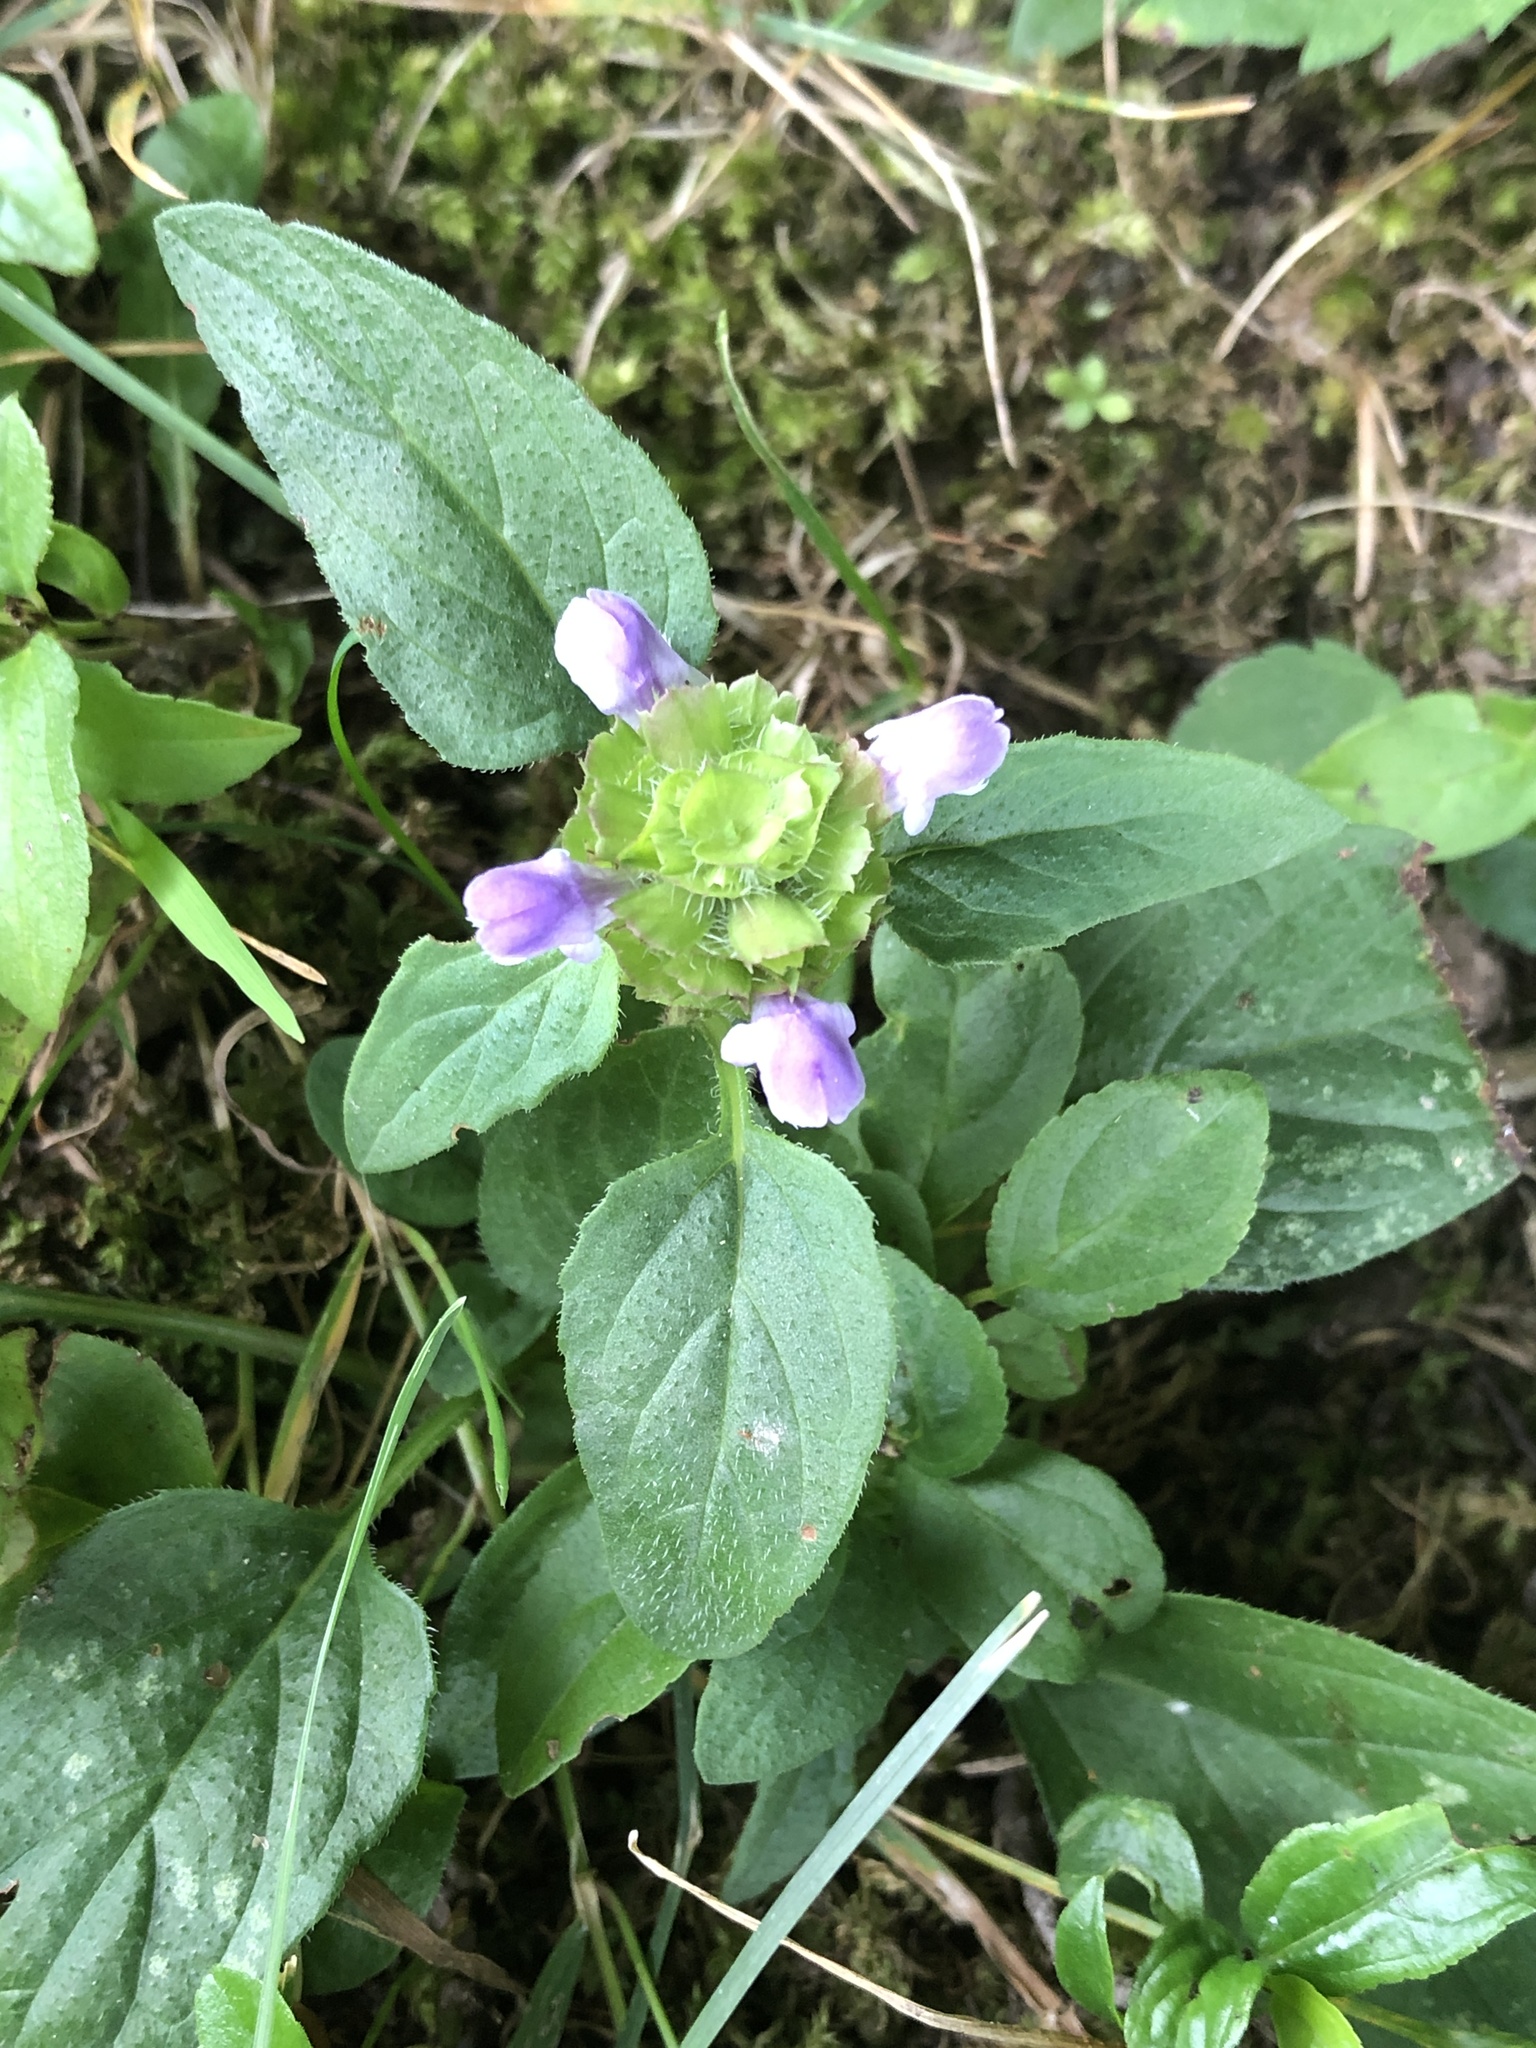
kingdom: Plantae
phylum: Tracheophyta
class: Magnoliopsida
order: Lamiales
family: Lamiaceae
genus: Prunella
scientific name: Prunella vulgaris
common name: Heal-all
